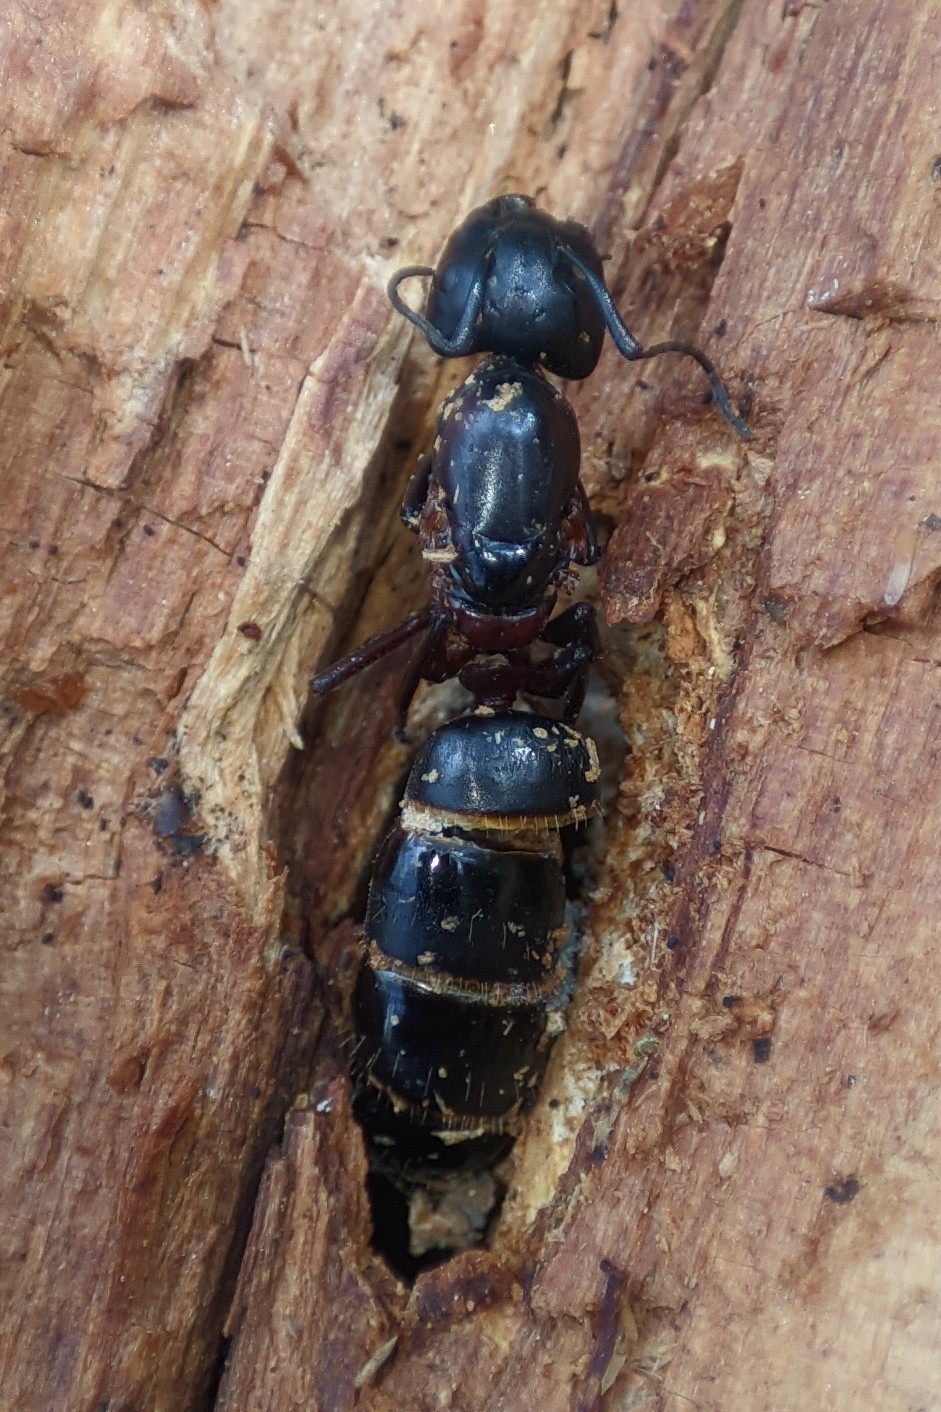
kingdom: Animalia
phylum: Arthropoda
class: Insecta
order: Hymenoptera
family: Formicidae
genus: Camponotus
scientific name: Camponotus herculeanus
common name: Hercules ant
